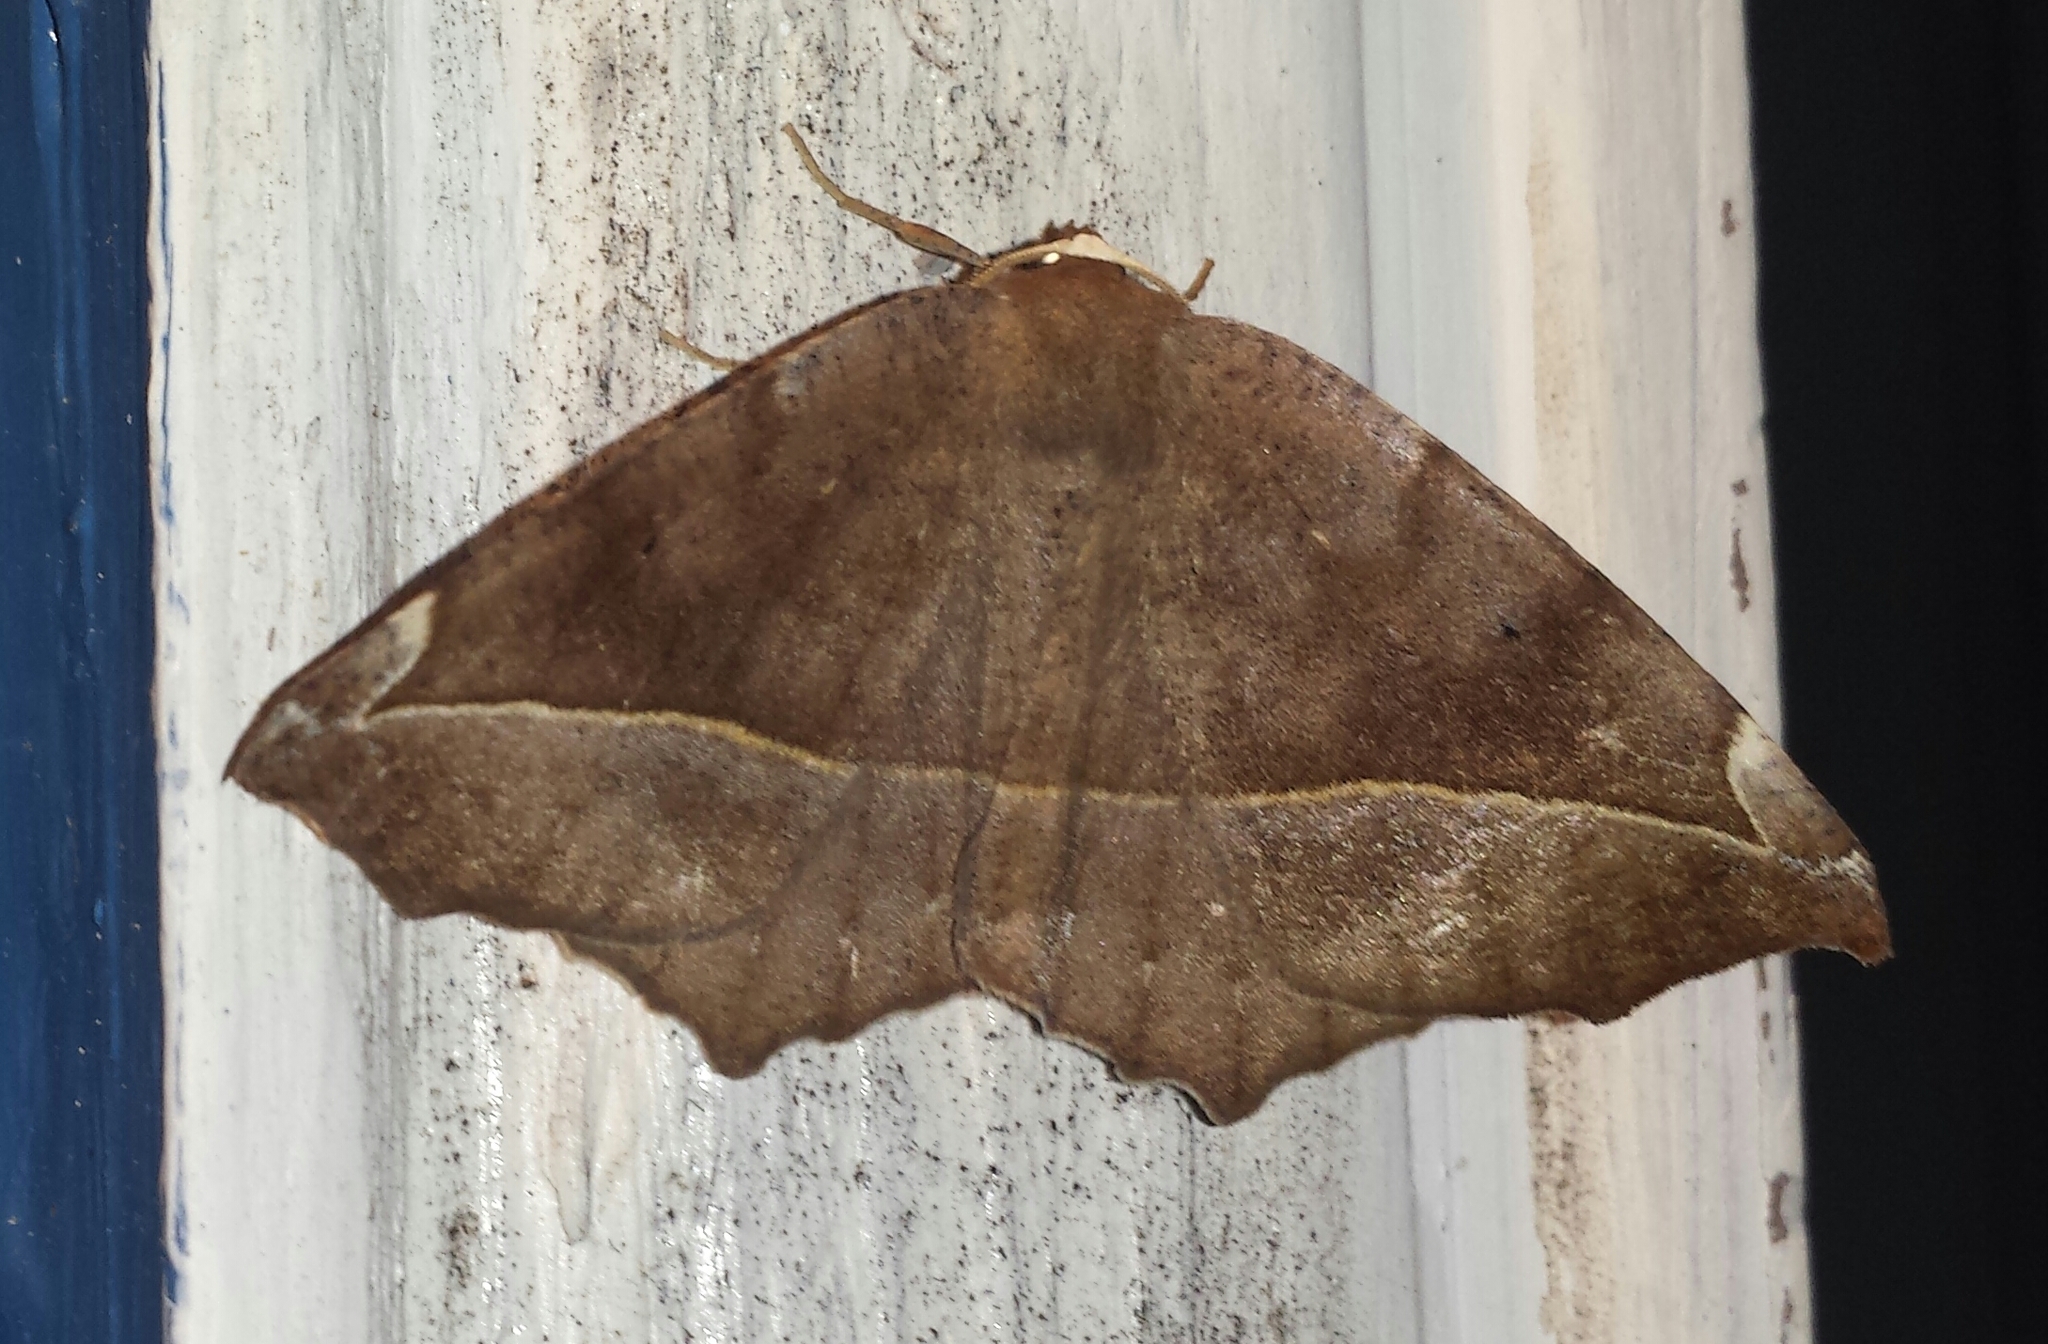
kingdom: Animalia
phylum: Arthropoda
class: Insecta
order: Lepidoptera
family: Geometridae
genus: Eutrapela
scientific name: Eutrapela clemataria
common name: Curved-toothed geometer
